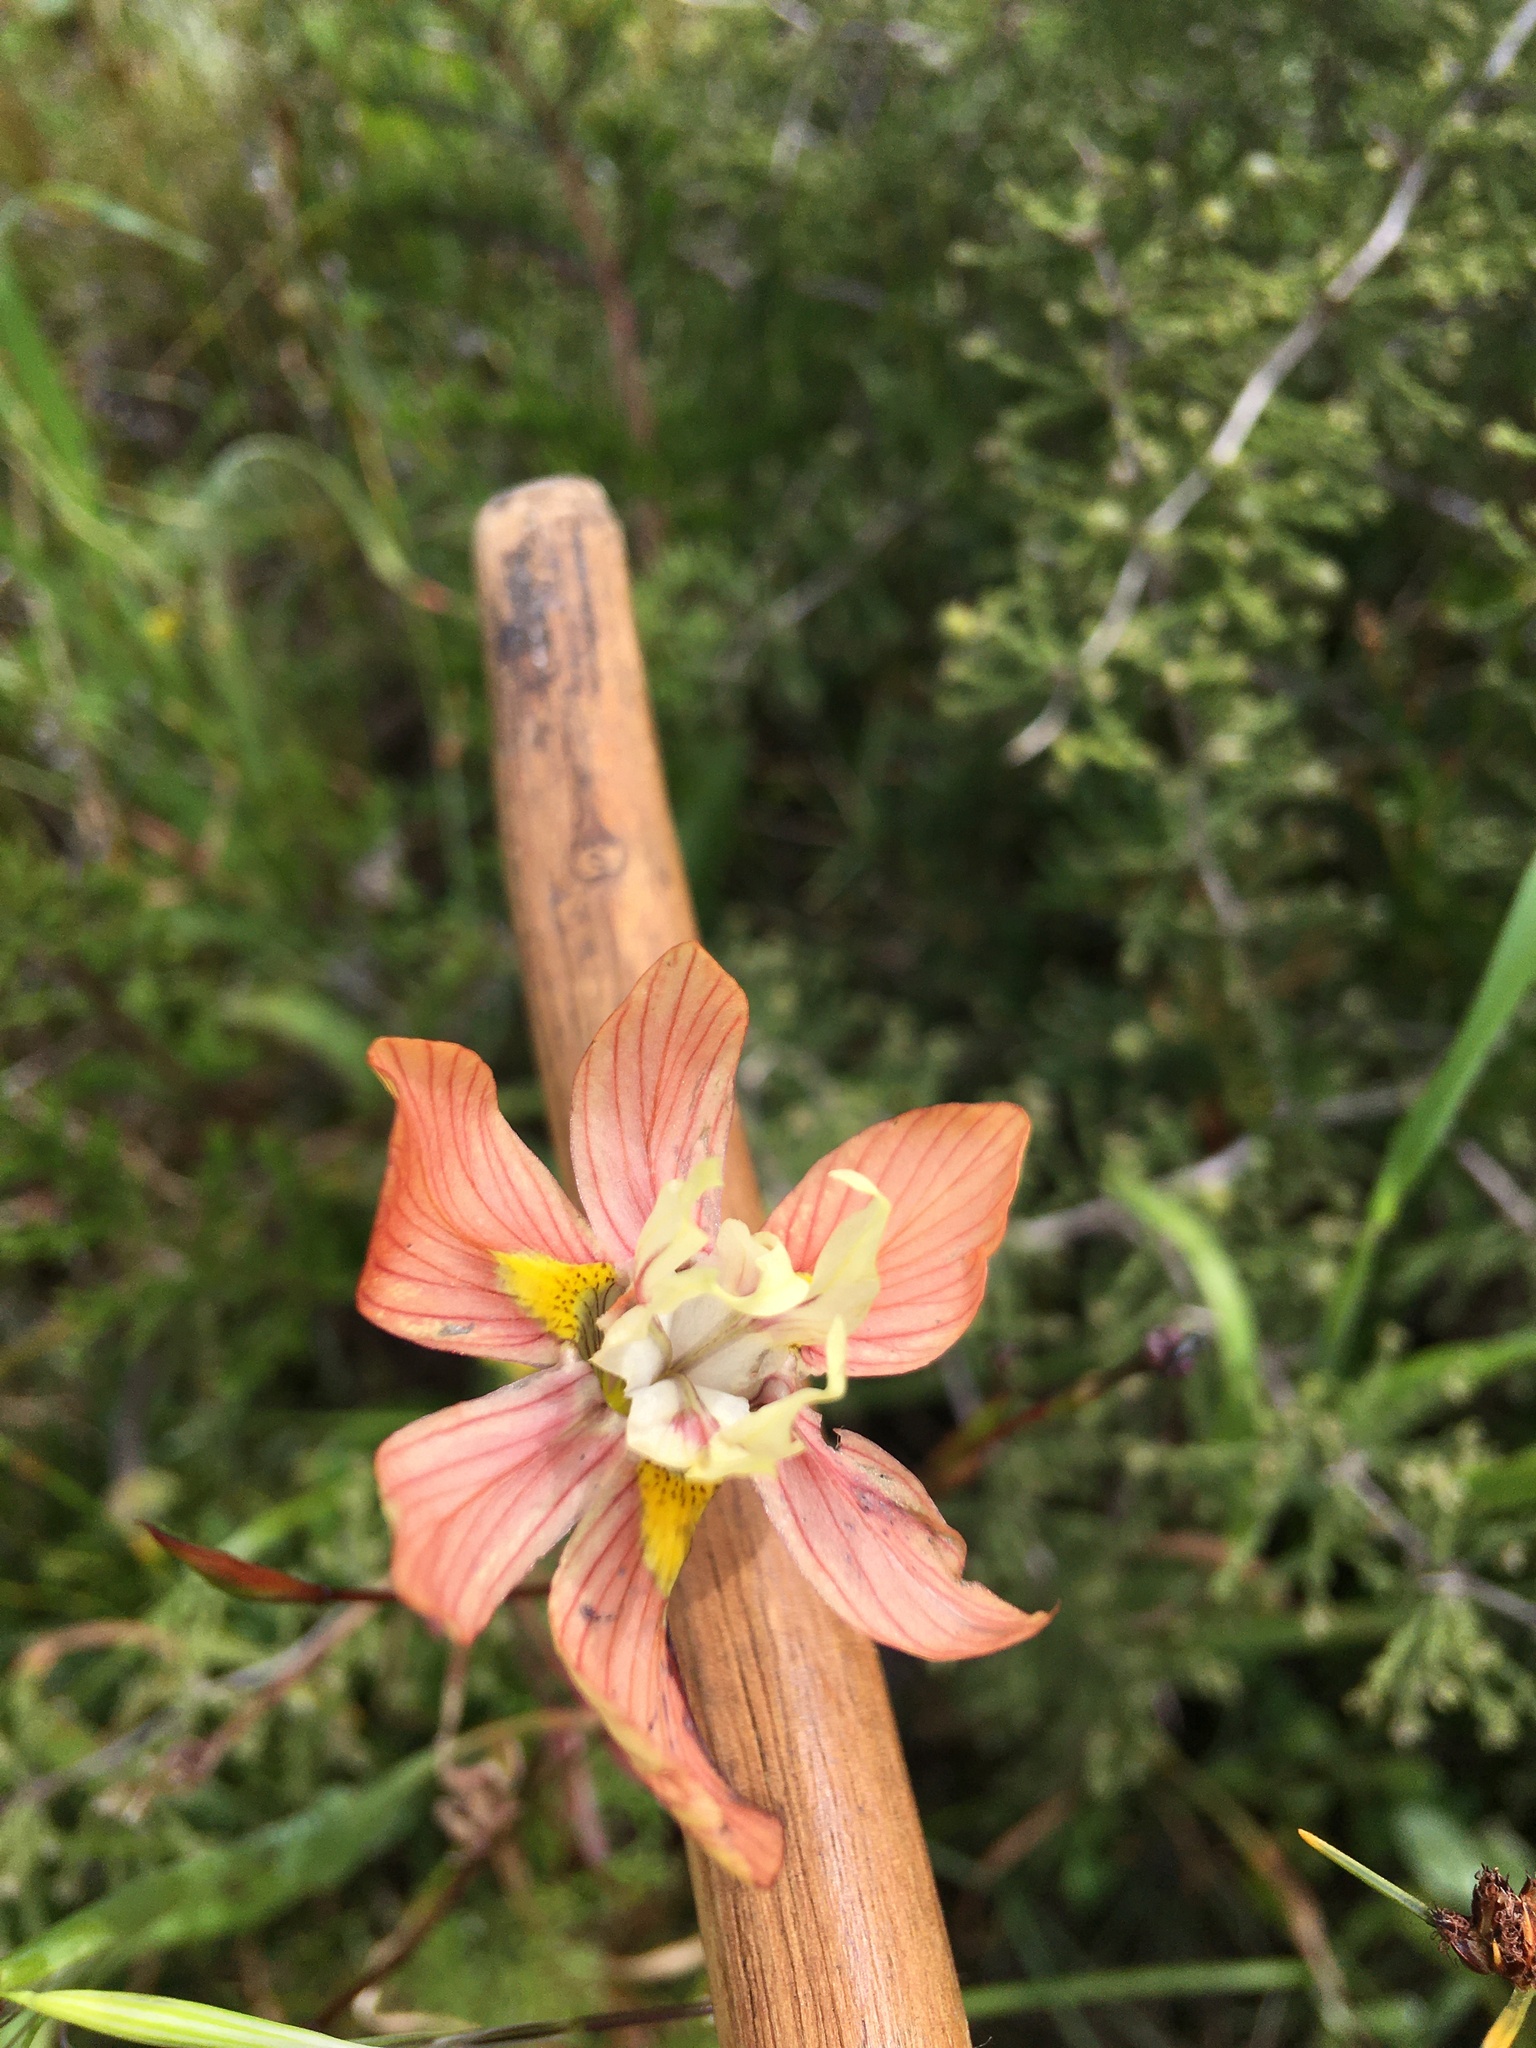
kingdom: Plantae
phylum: Tracheophyta
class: Liliopsida
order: Asparagales
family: Iridaceae
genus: Moraea
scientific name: Moraea gawleri
